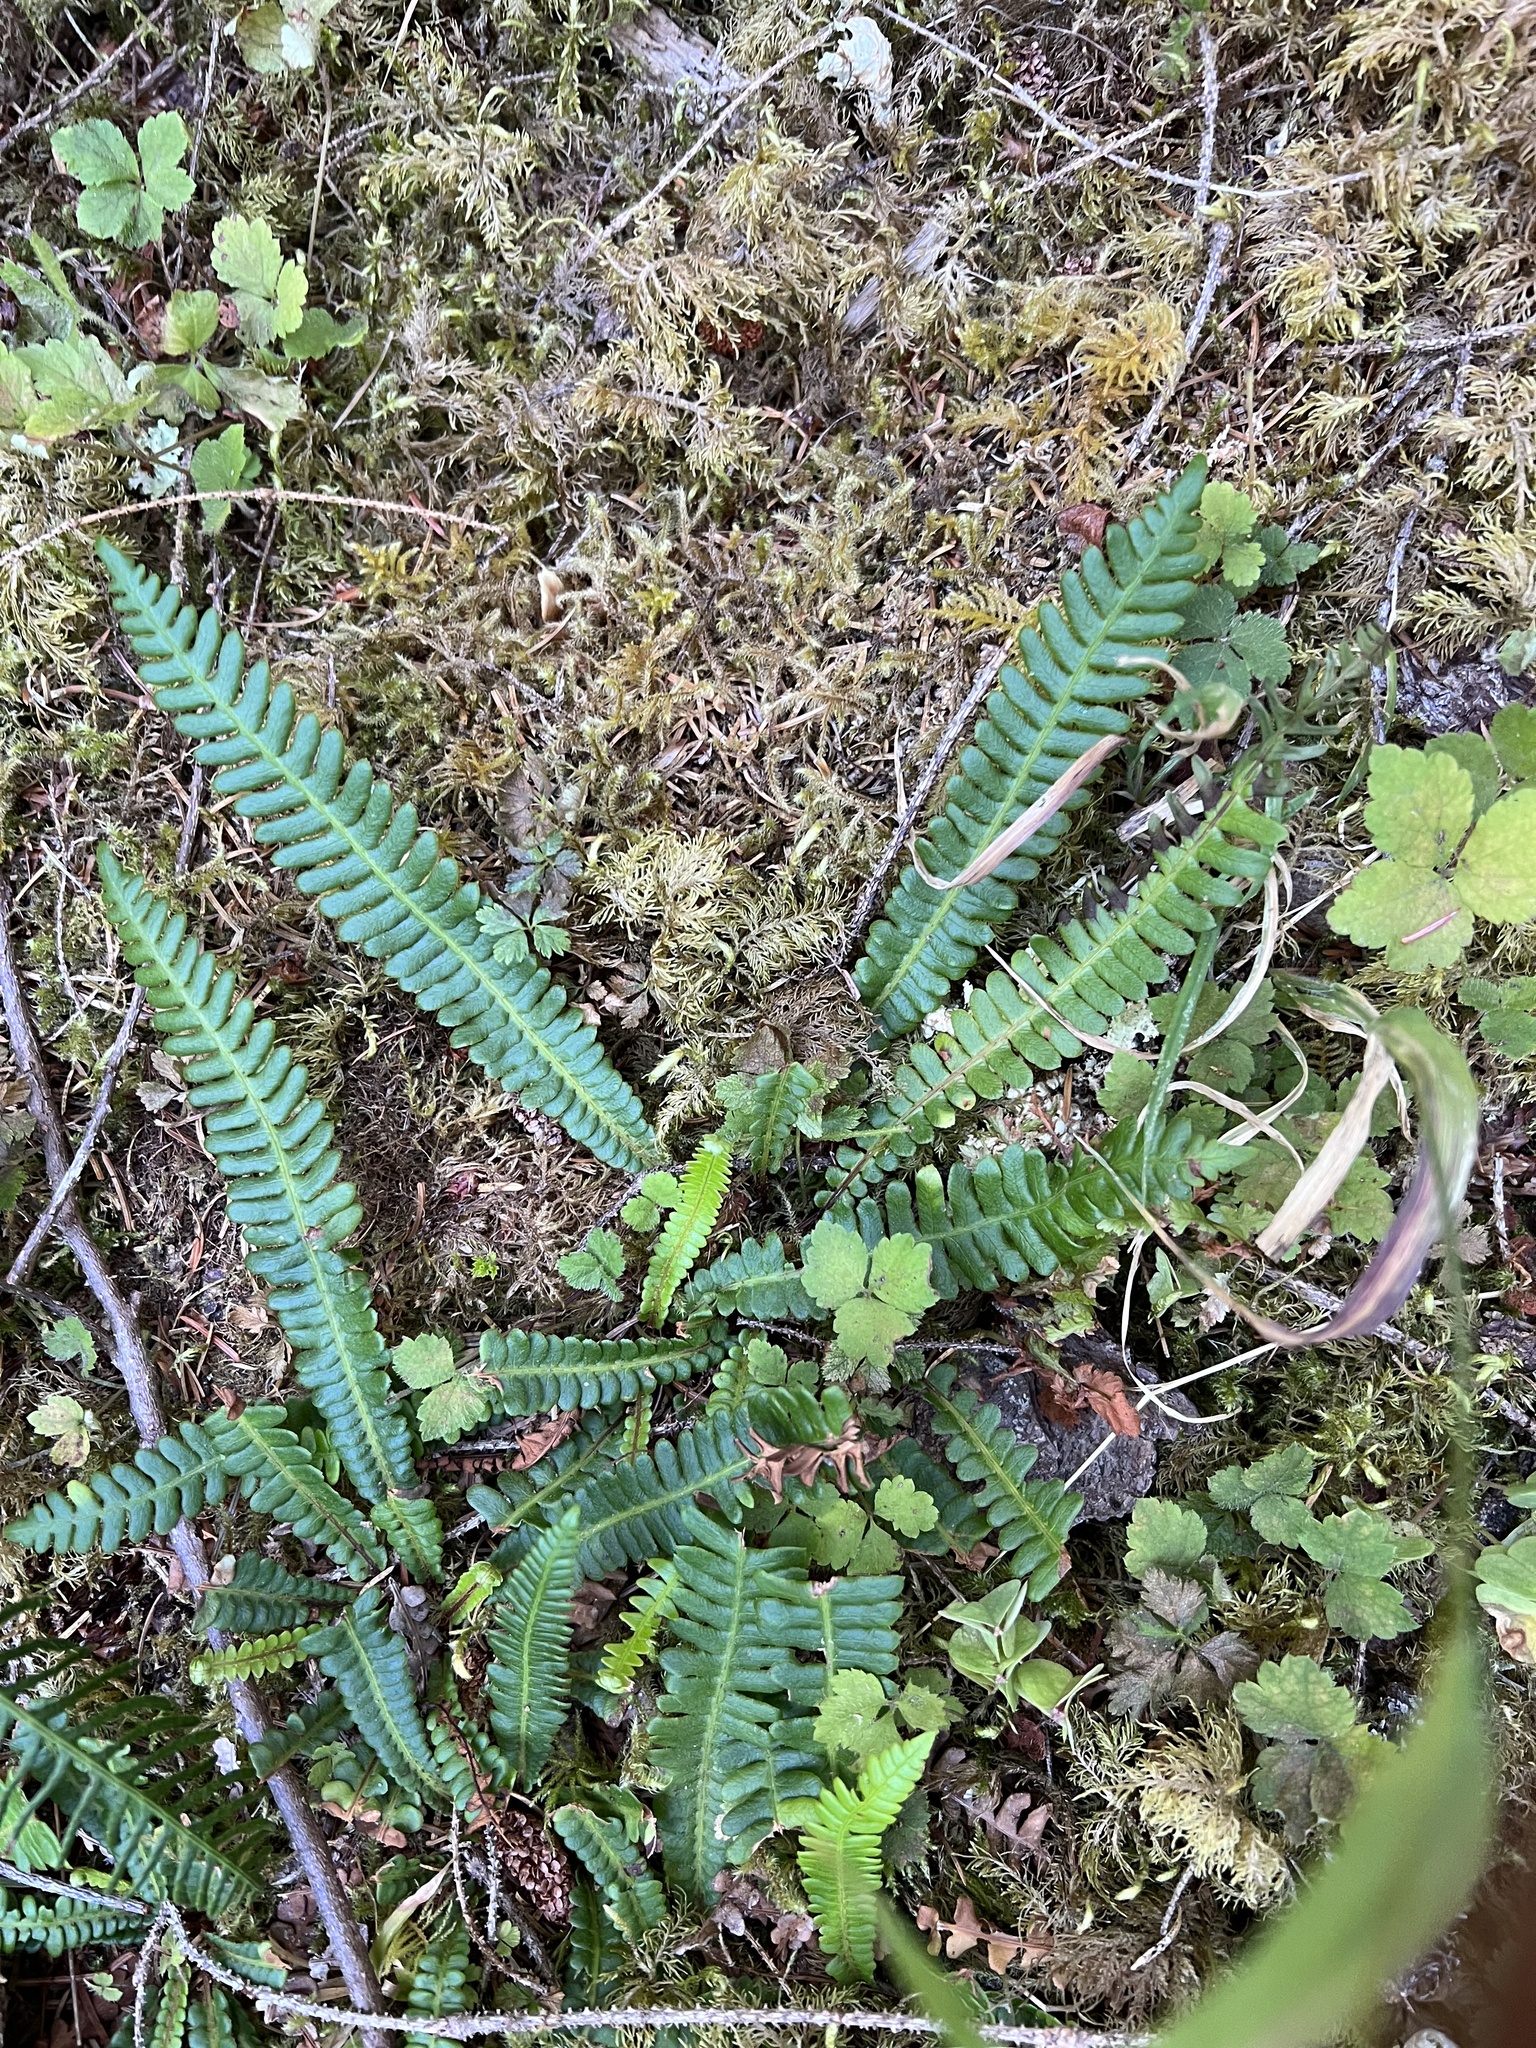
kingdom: Plantae
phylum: Tracheophyta
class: Polypodiopsida
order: Polypodiales
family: Blechnaceae
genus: Struthiopteris
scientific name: Struthiopteris spicant
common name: Deer fern
